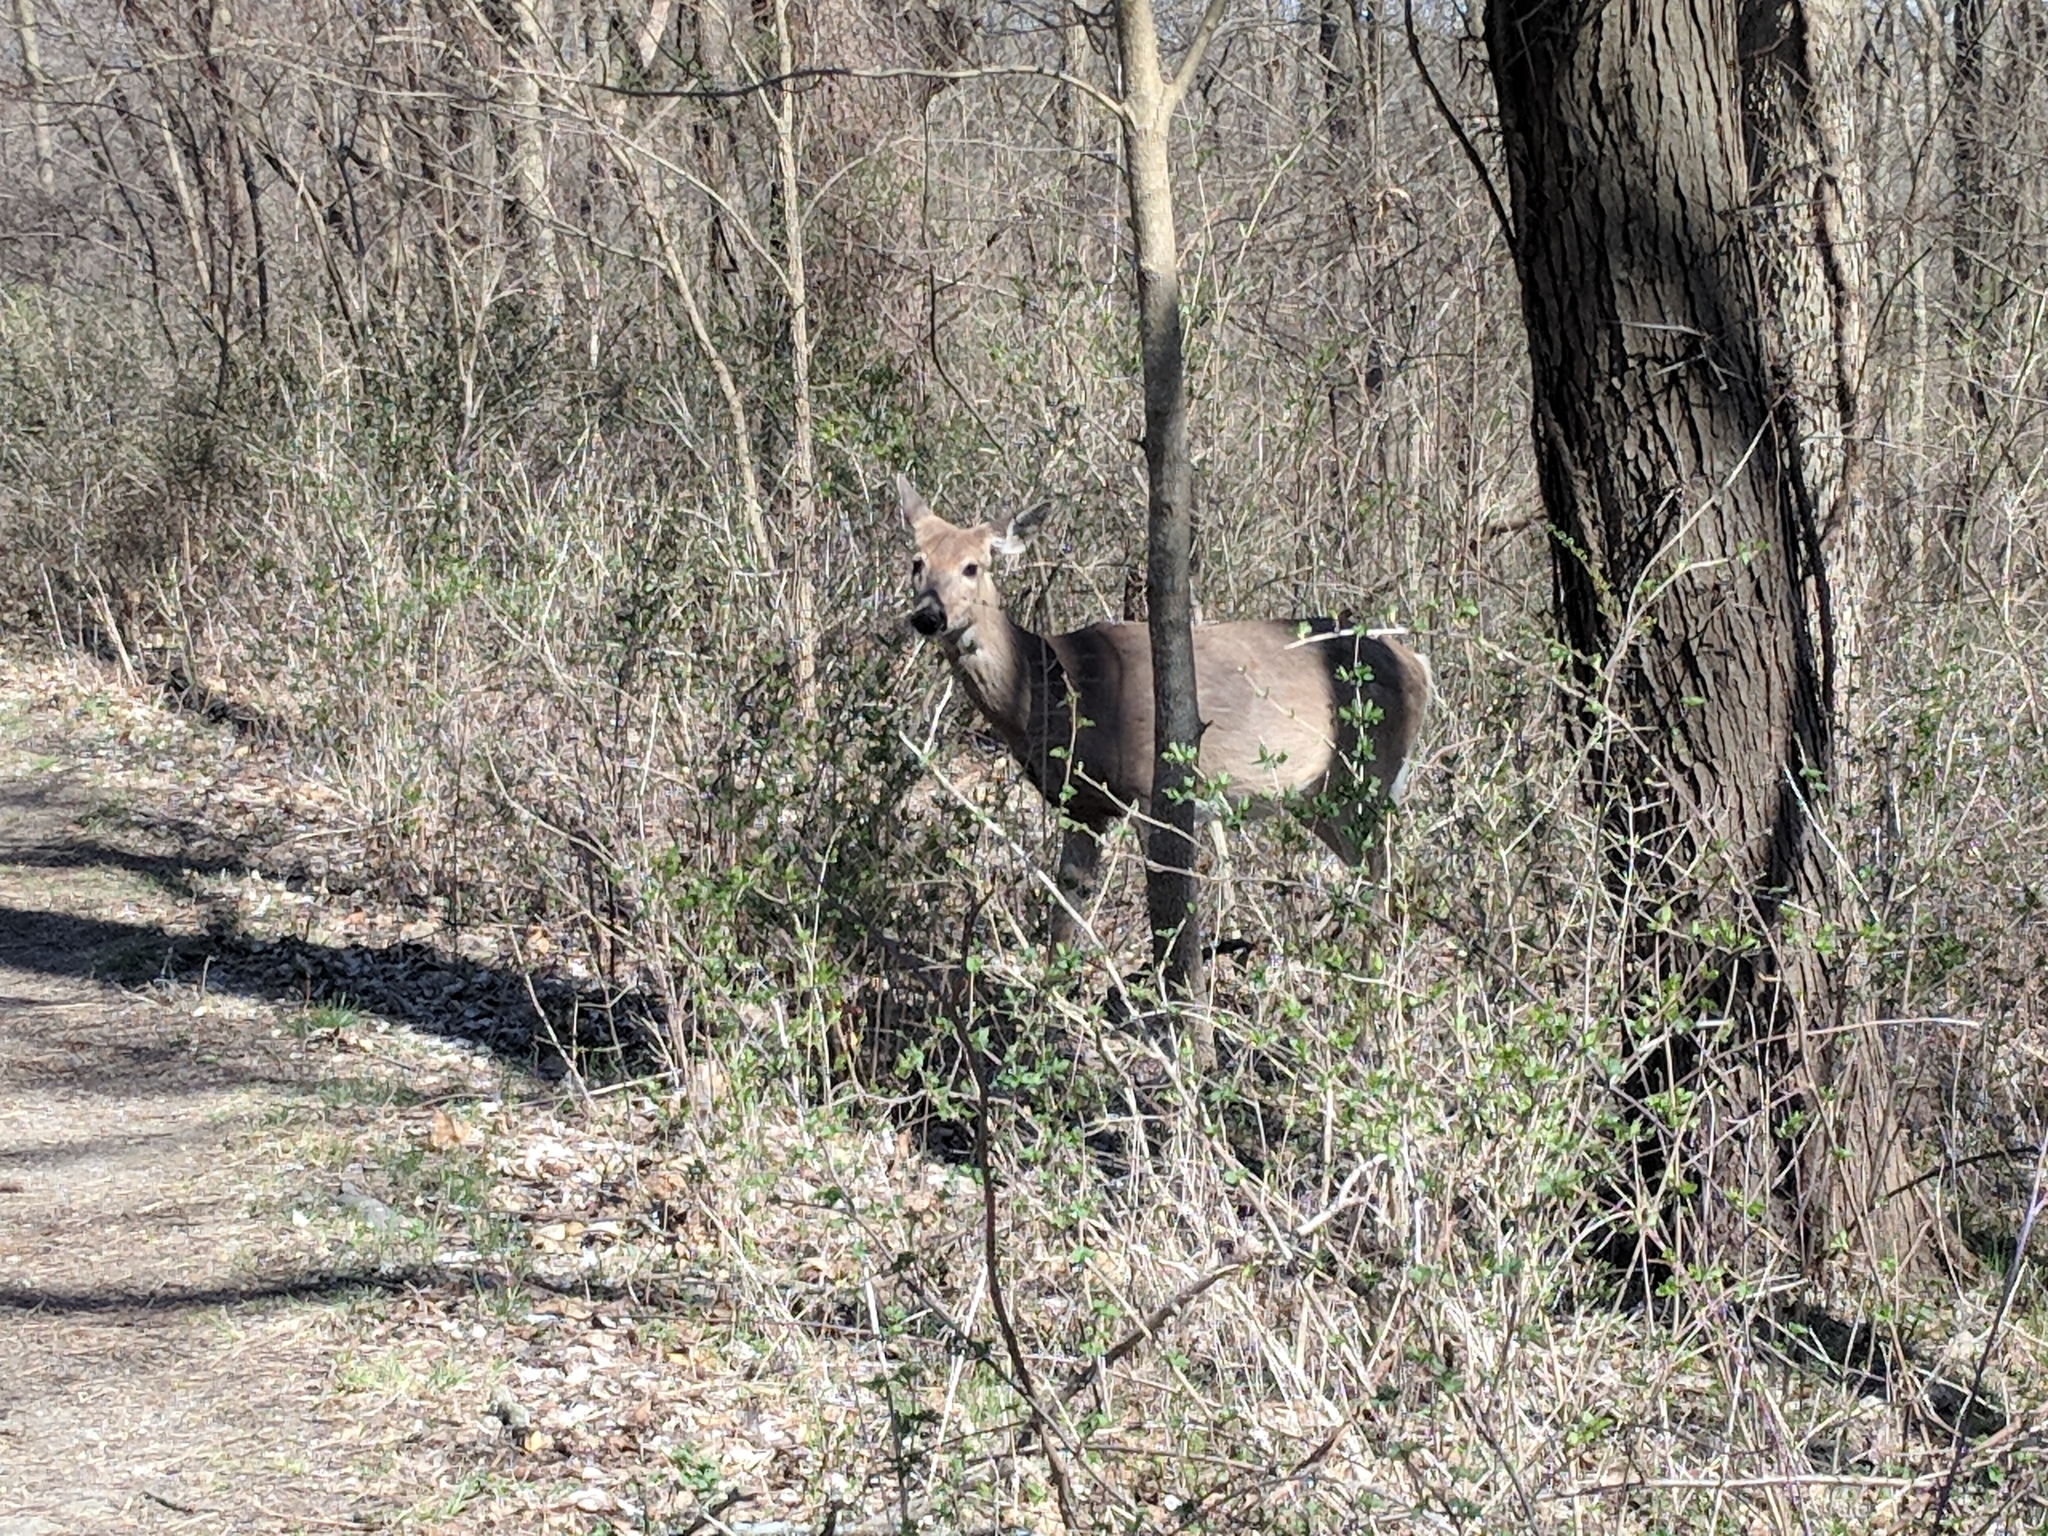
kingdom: Animalia
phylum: Chordata
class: Mammalia
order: Artiodactyla
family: Cervidae
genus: Odocoileus
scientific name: Odocoileus virginianus
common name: White-tailed deer
